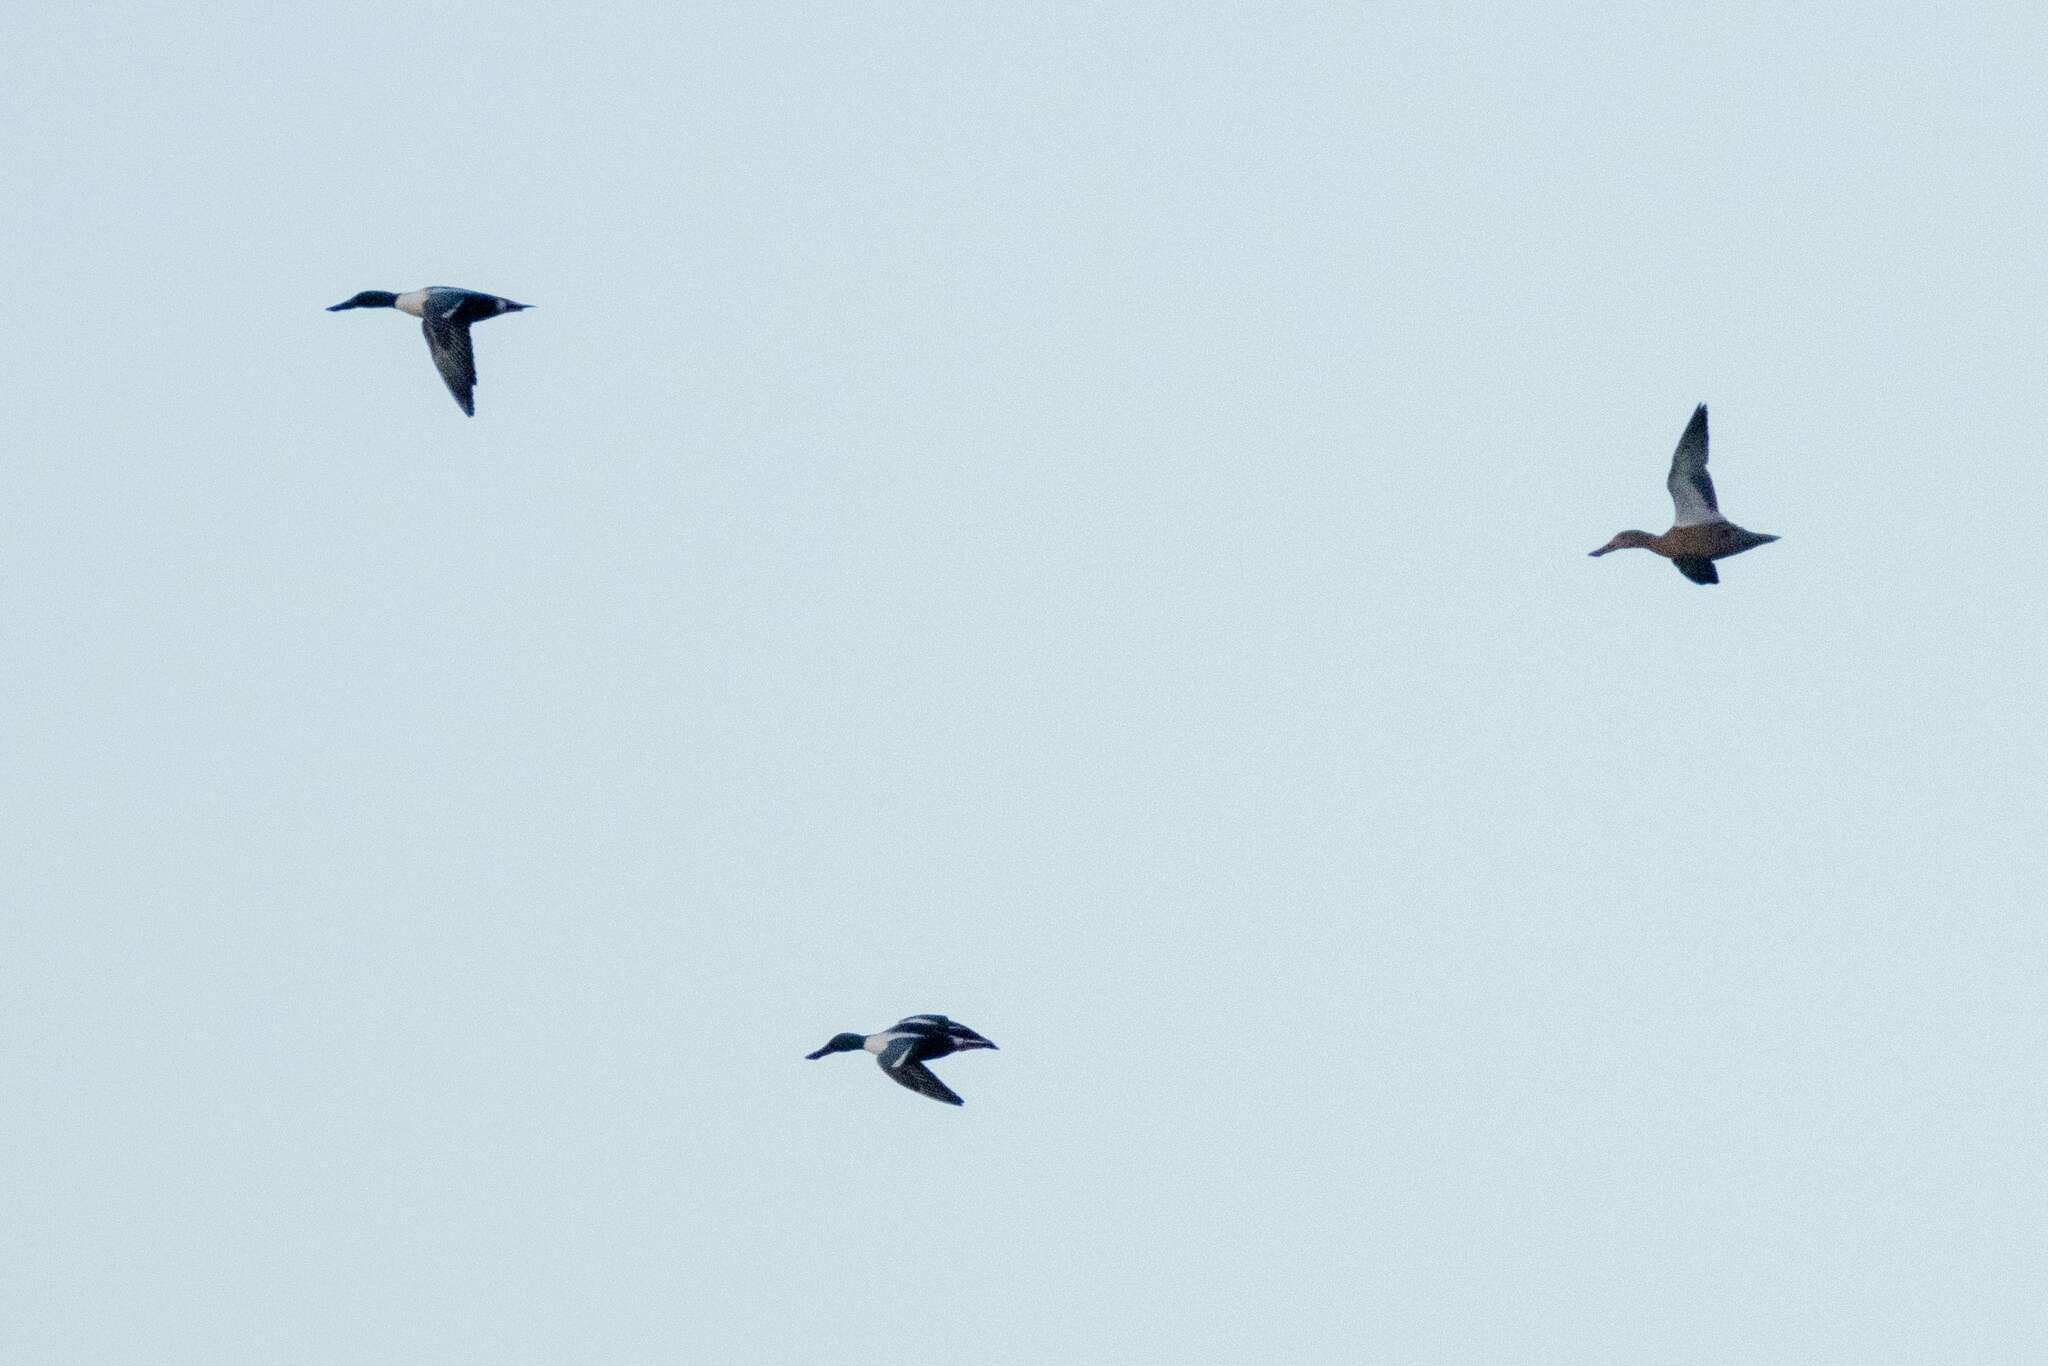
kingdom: Animalia
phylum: Chordata
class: Aves
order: Anseriformes
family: Anatidae
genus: Spatula
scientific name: Spatula clypeata
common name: Northern shoveler
